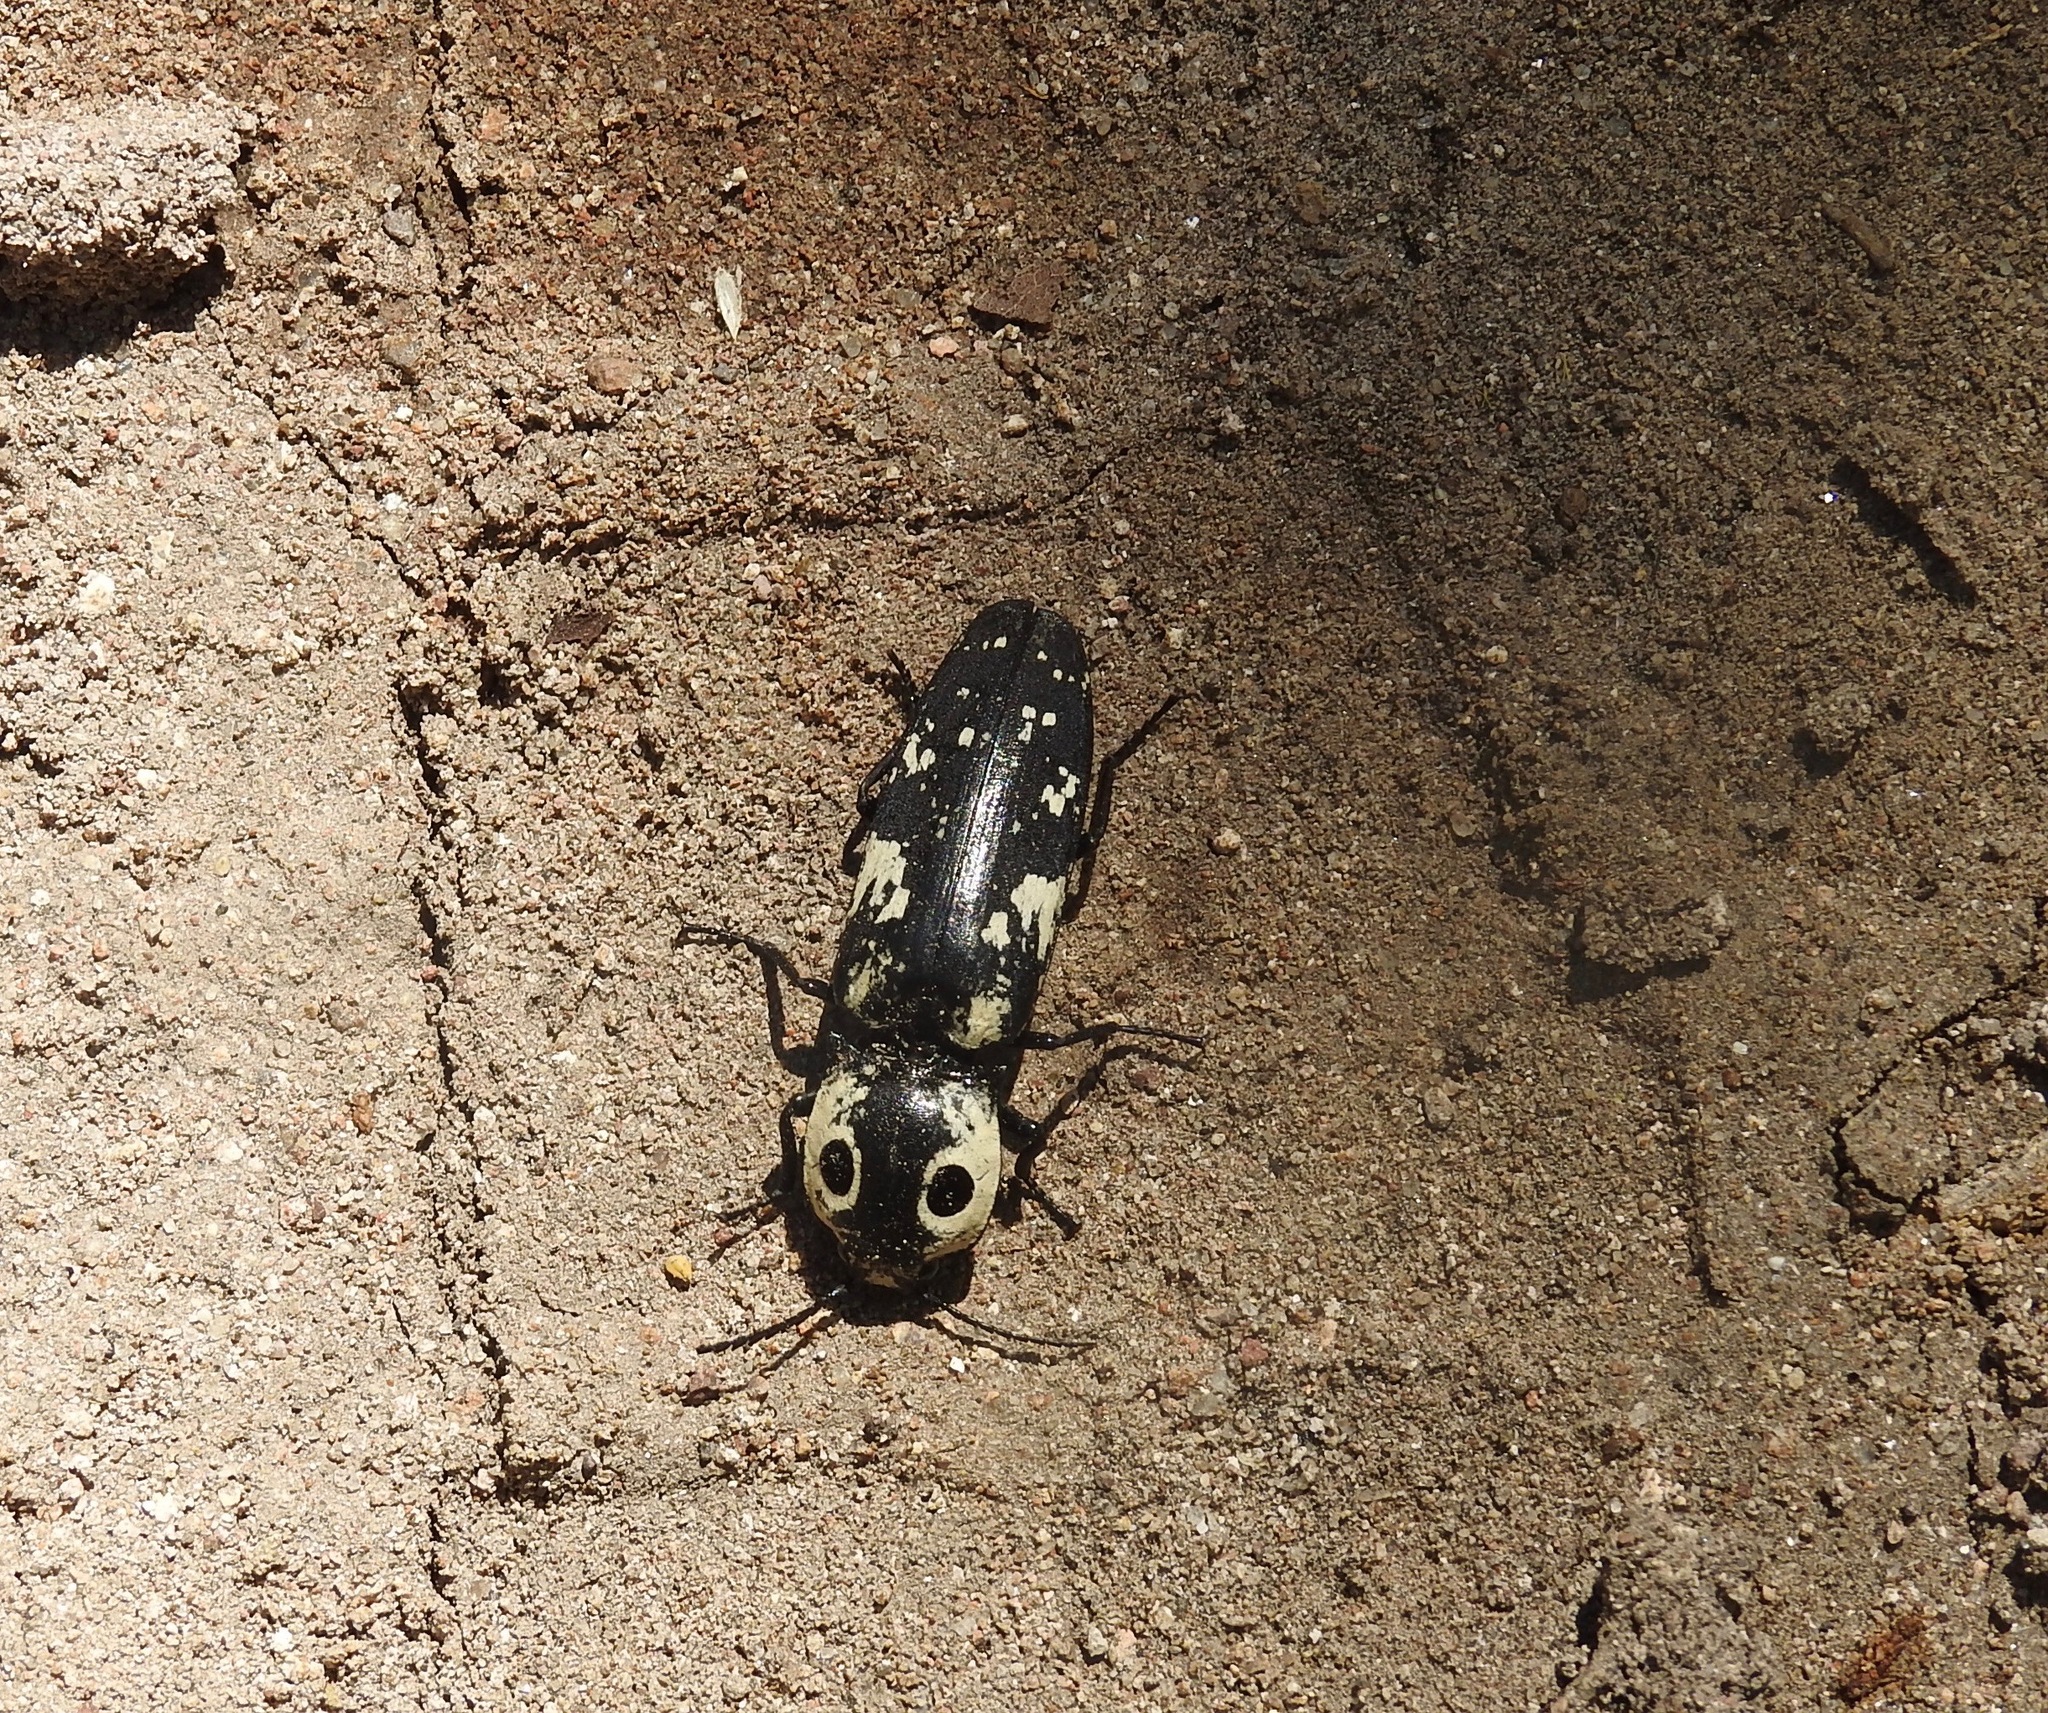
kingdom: Animalia
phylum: Arthropoda
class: Insecta
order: Coleoptera
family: Elateridae
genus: Alaus
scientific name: Alaus zunianus
